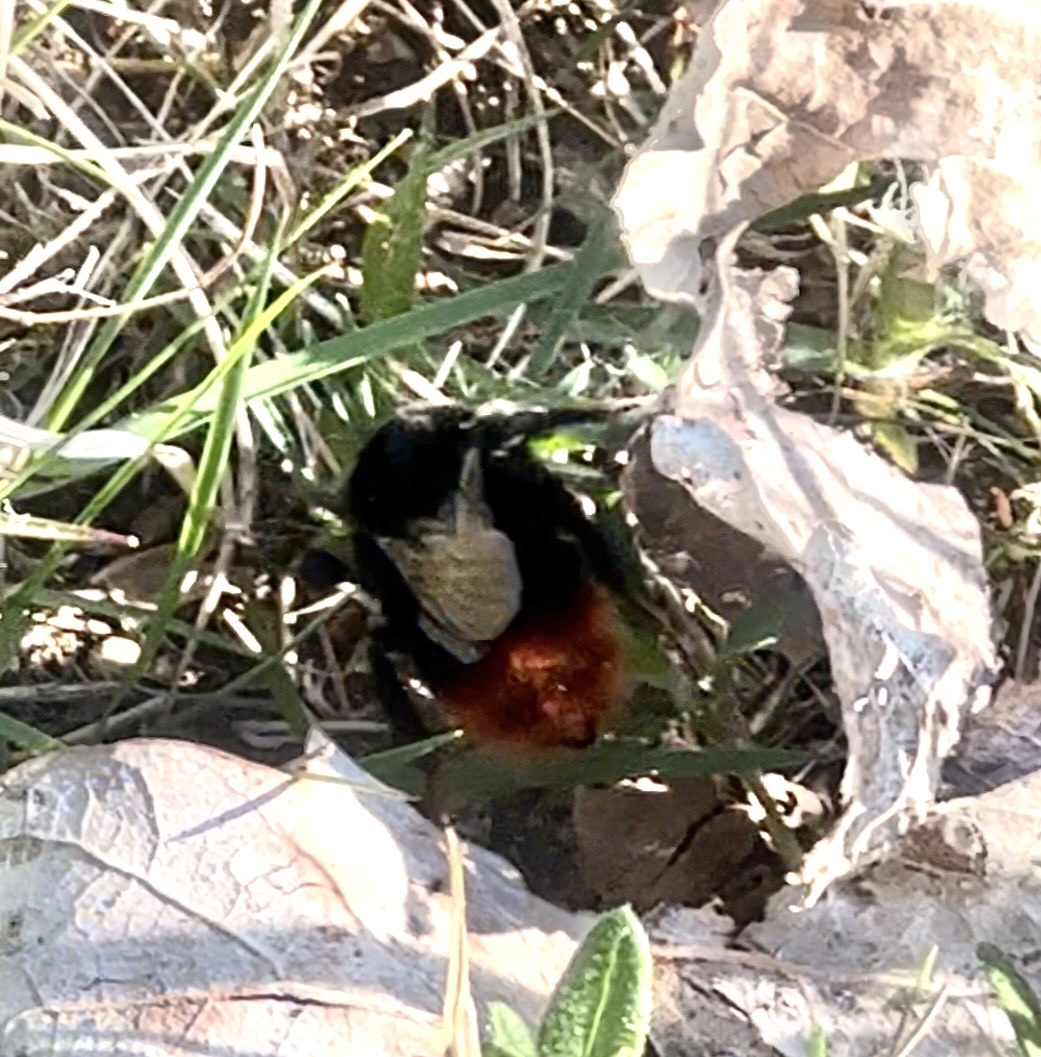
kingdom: Animalia
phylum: Arthropoda
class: Insecta
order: Hymenoptera
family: Apidae
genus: Bombus
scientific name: Bombus lapidarius
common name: Large red-tailed humble-bee
